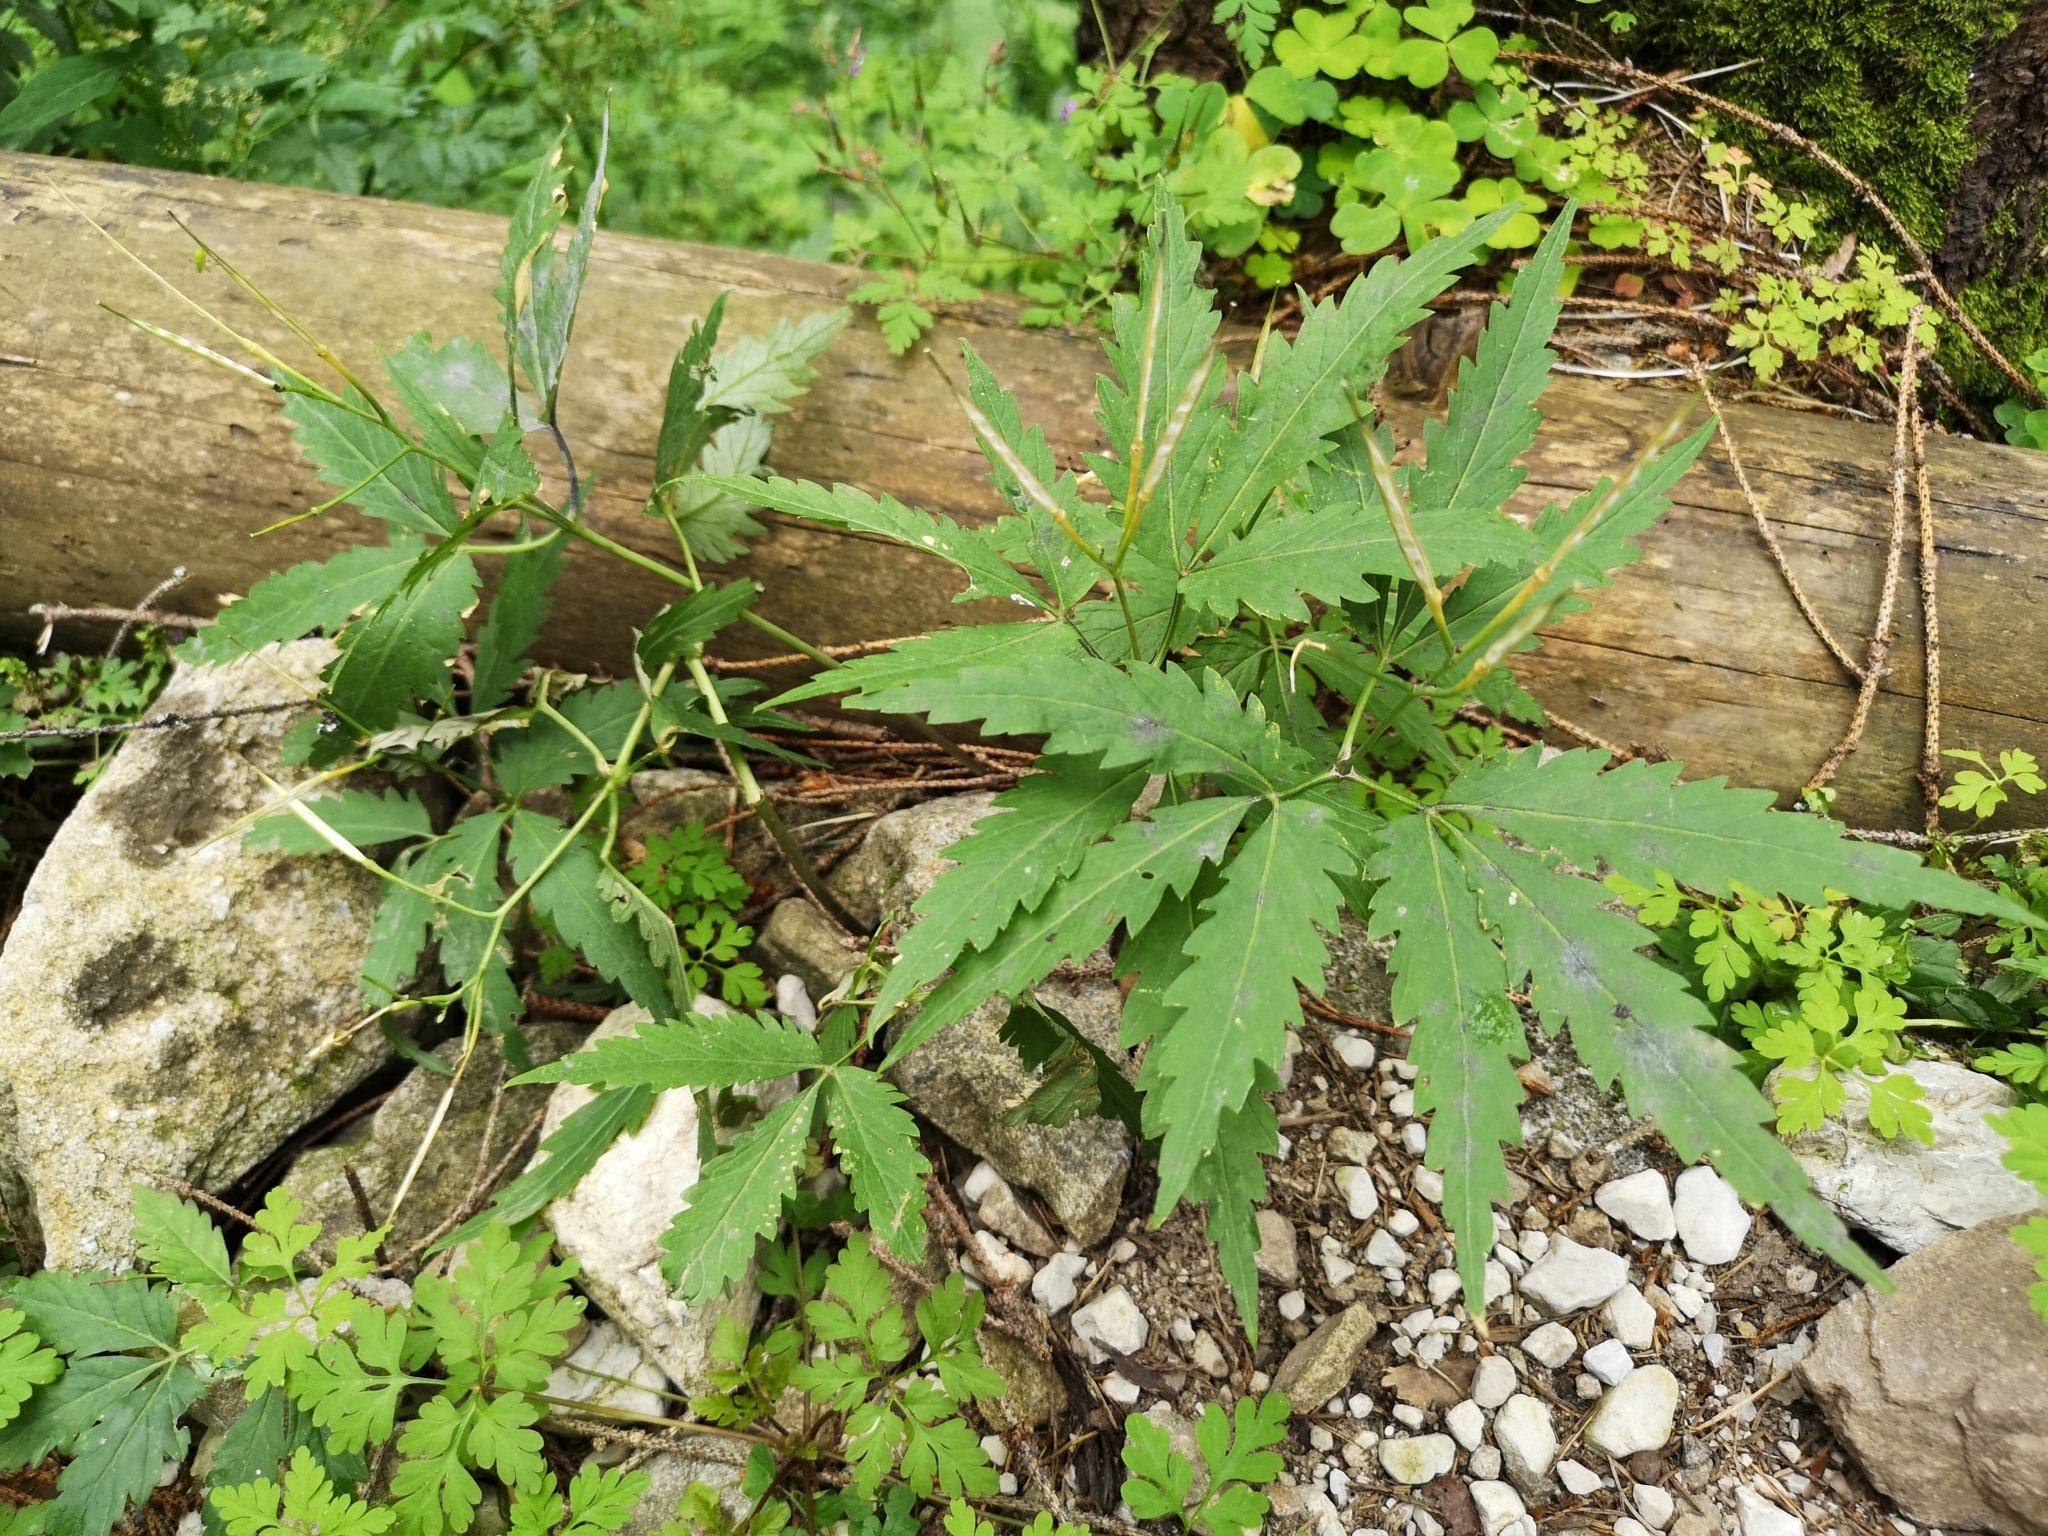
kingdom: Plantae
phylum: Tracheophyta
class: Magnoliopsida
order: Brassicales
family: Brassicaceae
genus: Cardamine
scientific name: Cardamine glanduligera
